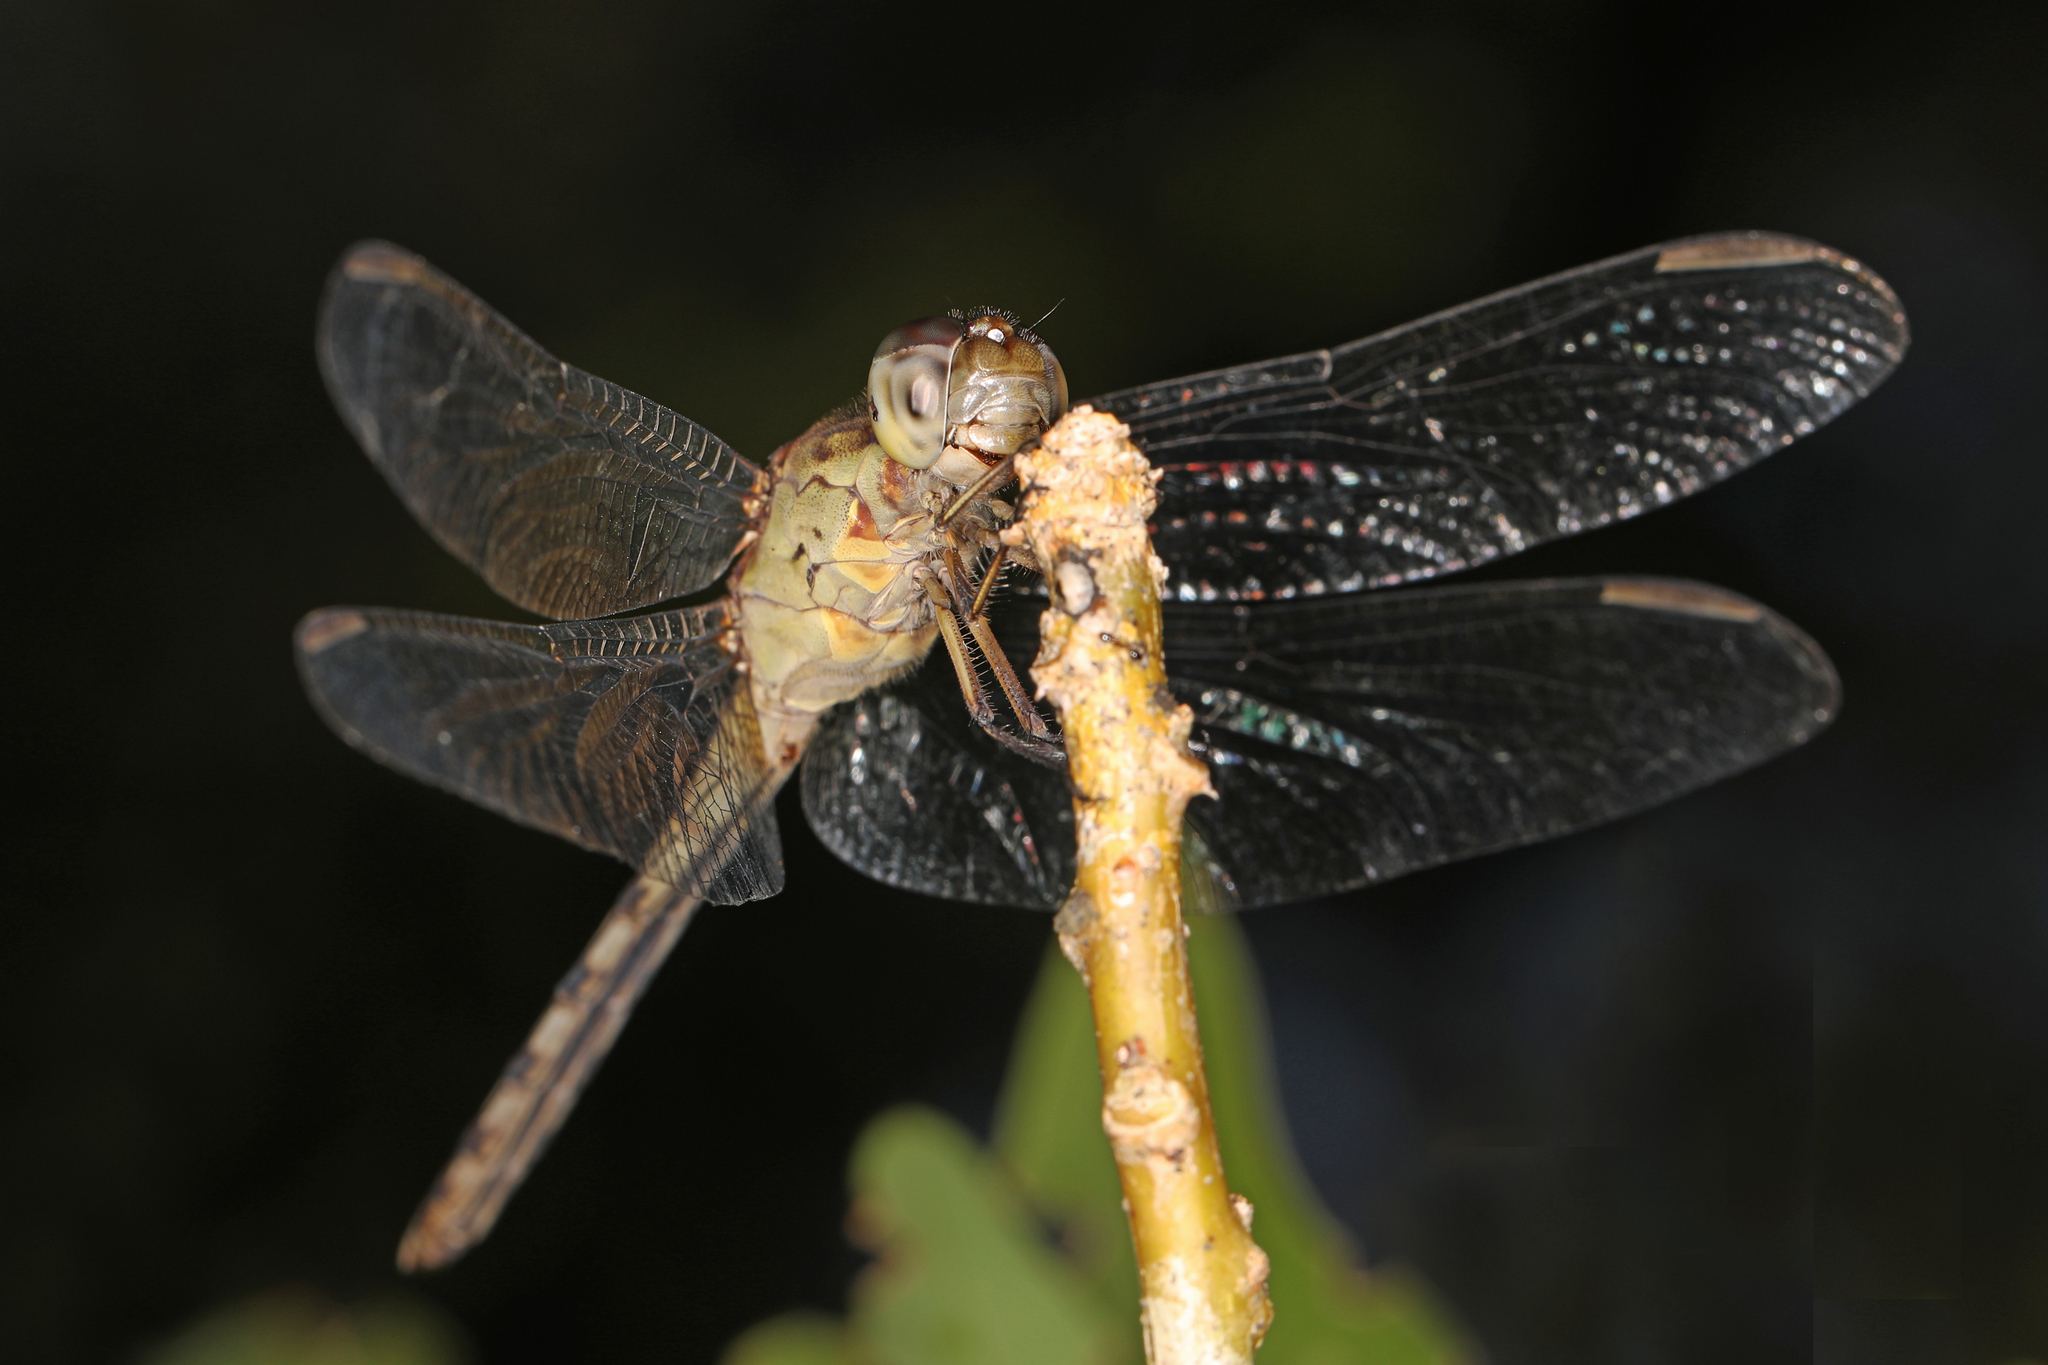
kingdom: Animalia
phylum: Arthropoda
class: Insecta
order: Odonata
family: Libellulidae
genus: Erythrodiplax
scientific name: Erythrodiplax umbrata
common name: Band-winged dragonlet
